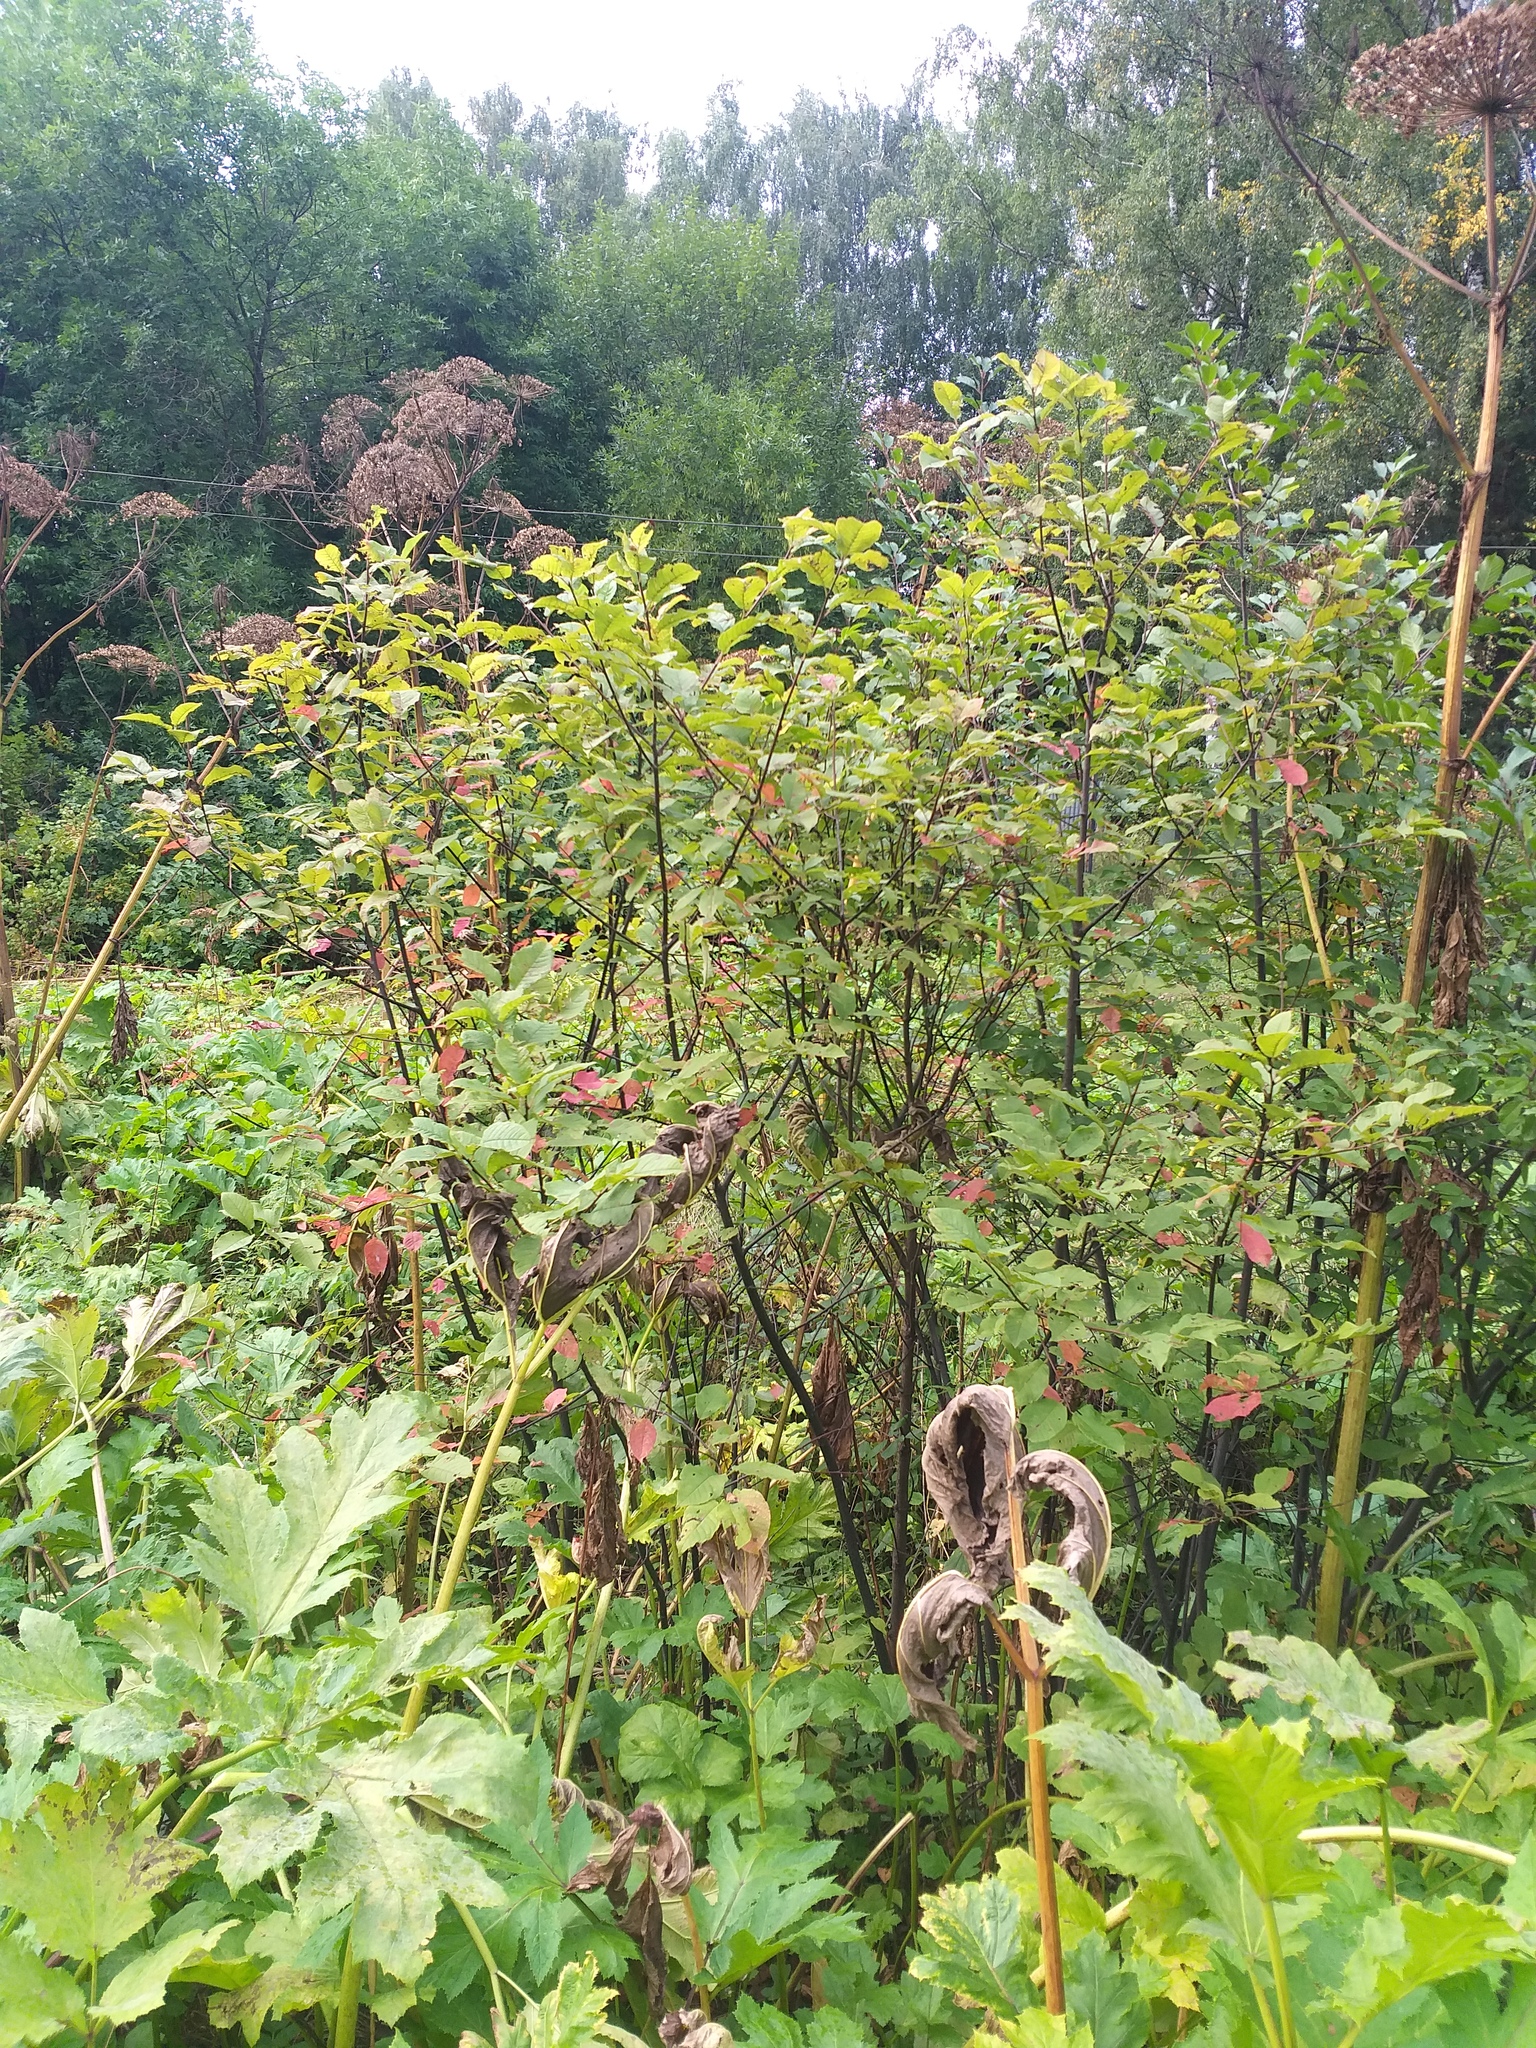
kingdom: Plantae
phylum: Tracheophyta
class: Magnoliopsida
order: Rosales
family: Rosaceae
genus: Prunus
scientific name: Prunus padus
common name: Bird cherry
